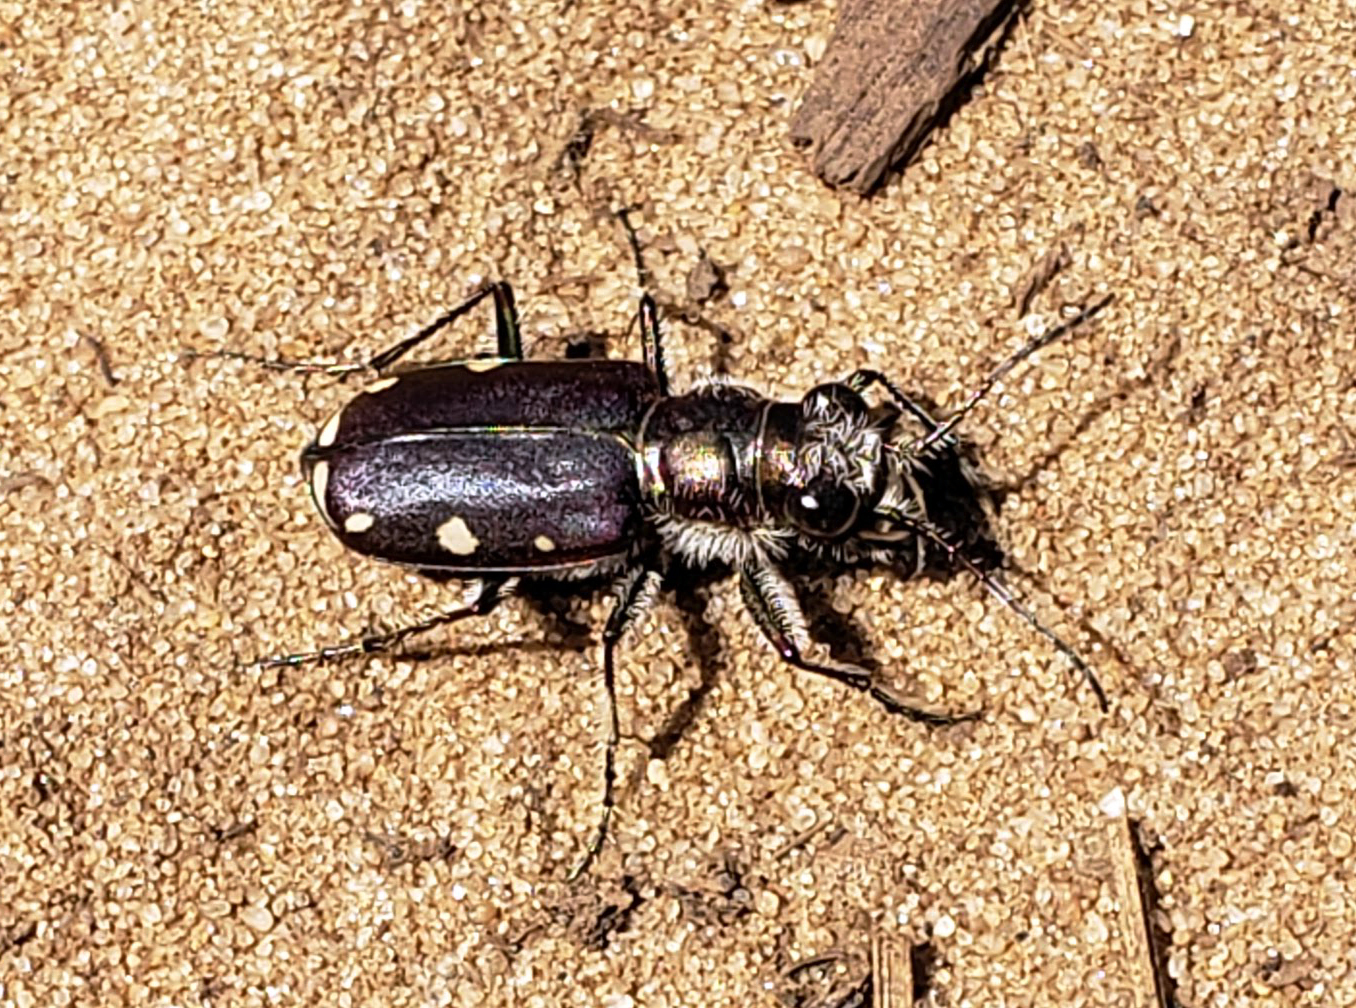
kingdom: Animalia
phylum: Arthropoda
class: Insecta
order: Coleoptera
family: Carabidae
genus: Cicindela
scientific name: Cicindela scutellaris
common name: Festive tiger beetle
